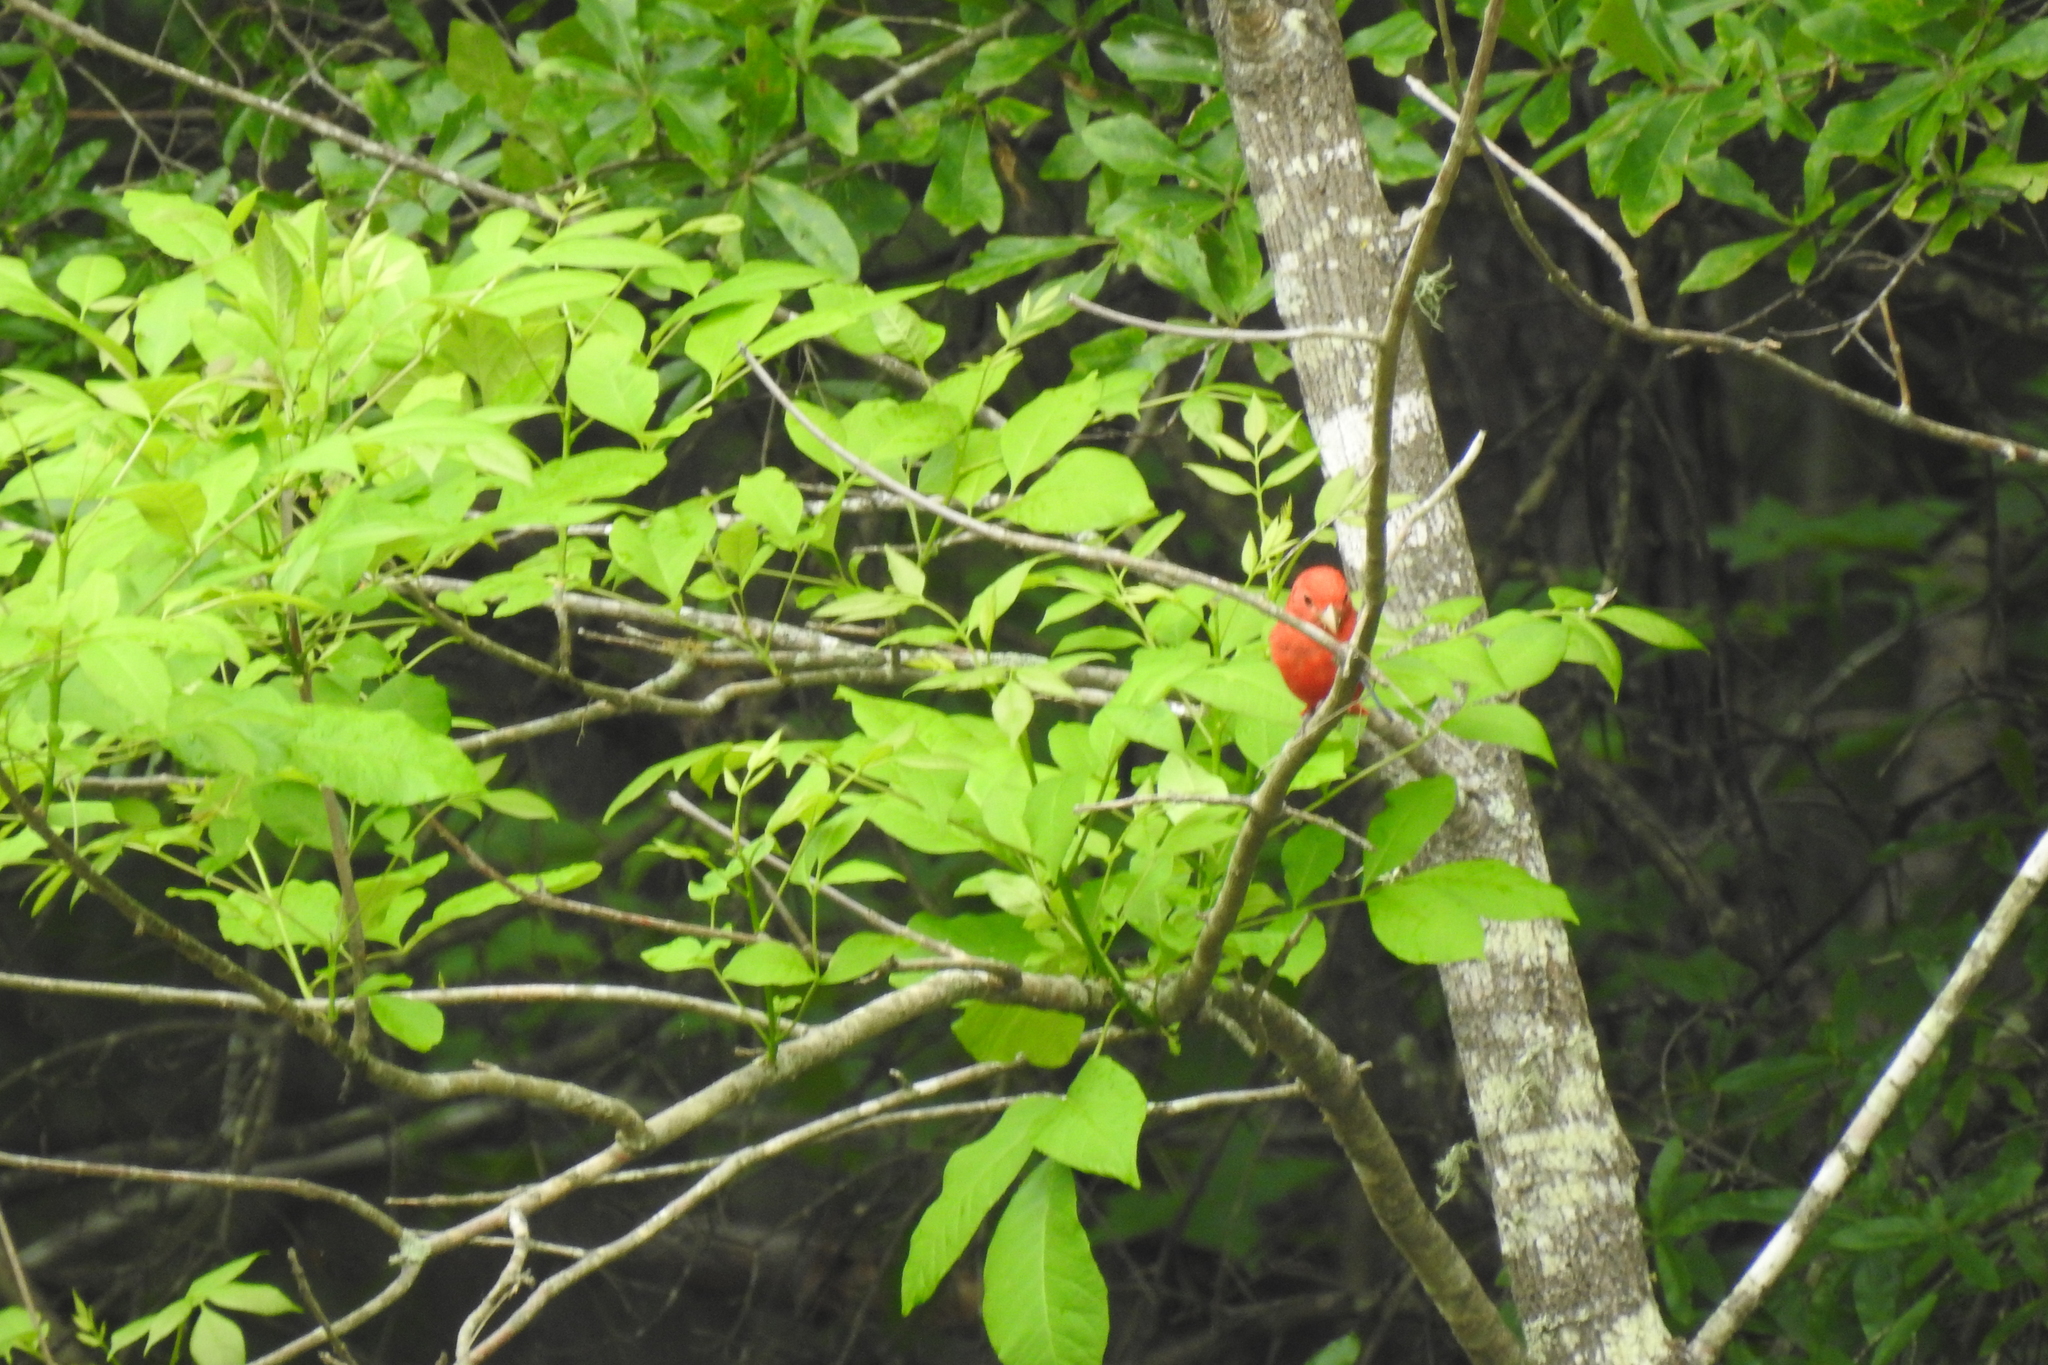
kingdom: Animalia
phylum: Chordata
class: Aves
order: Passeriformes
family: Cardinalidae
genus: Piranga
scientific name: Piranga rubra
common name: Summer tanager
